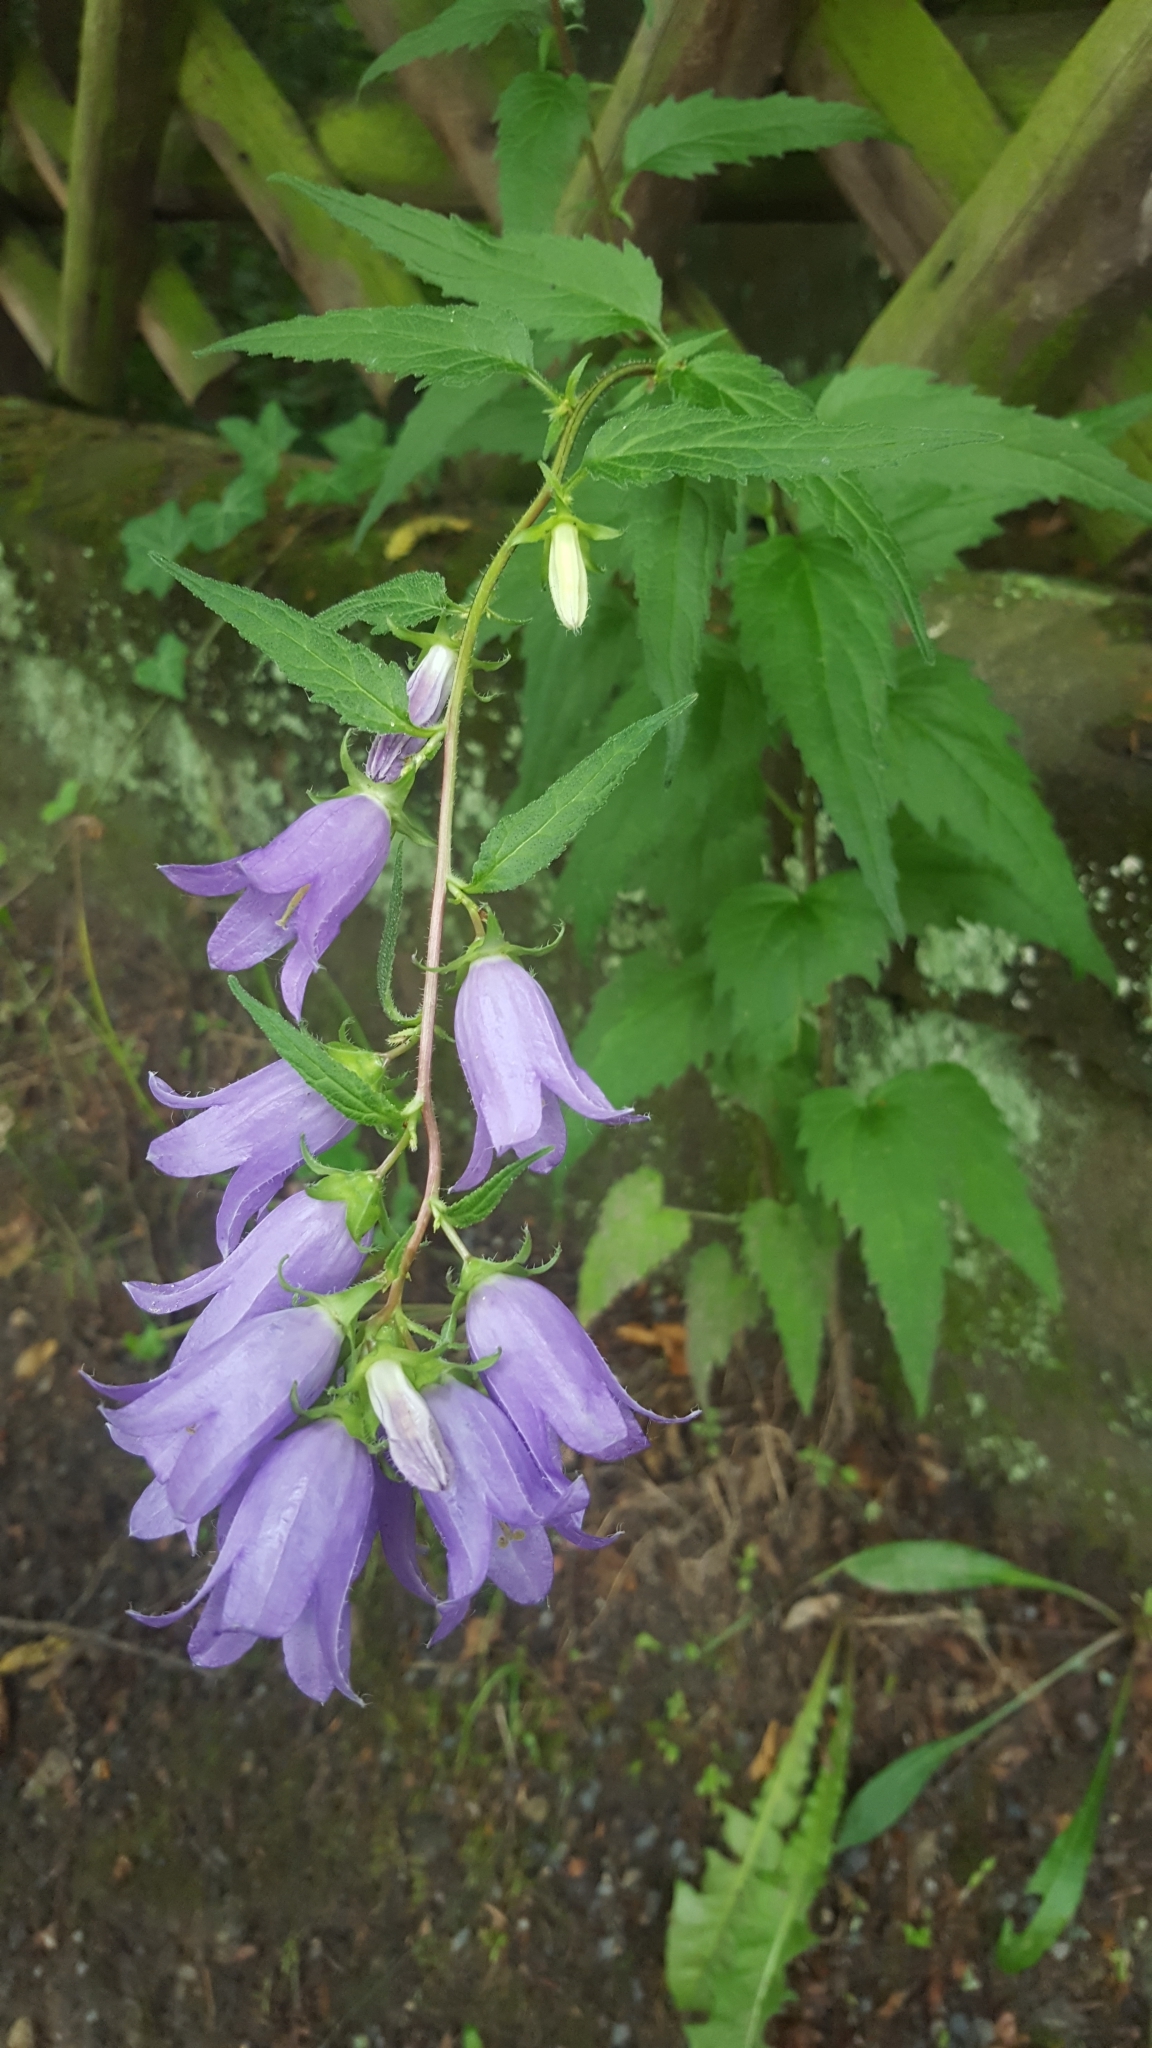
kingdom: Plantae
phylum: Tracheophyta
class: Magnoliopsida
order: Asterales
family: Campanulaceae
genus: Campanula
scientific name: Campanula trachelium
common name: Nettle-leaved bellflower
